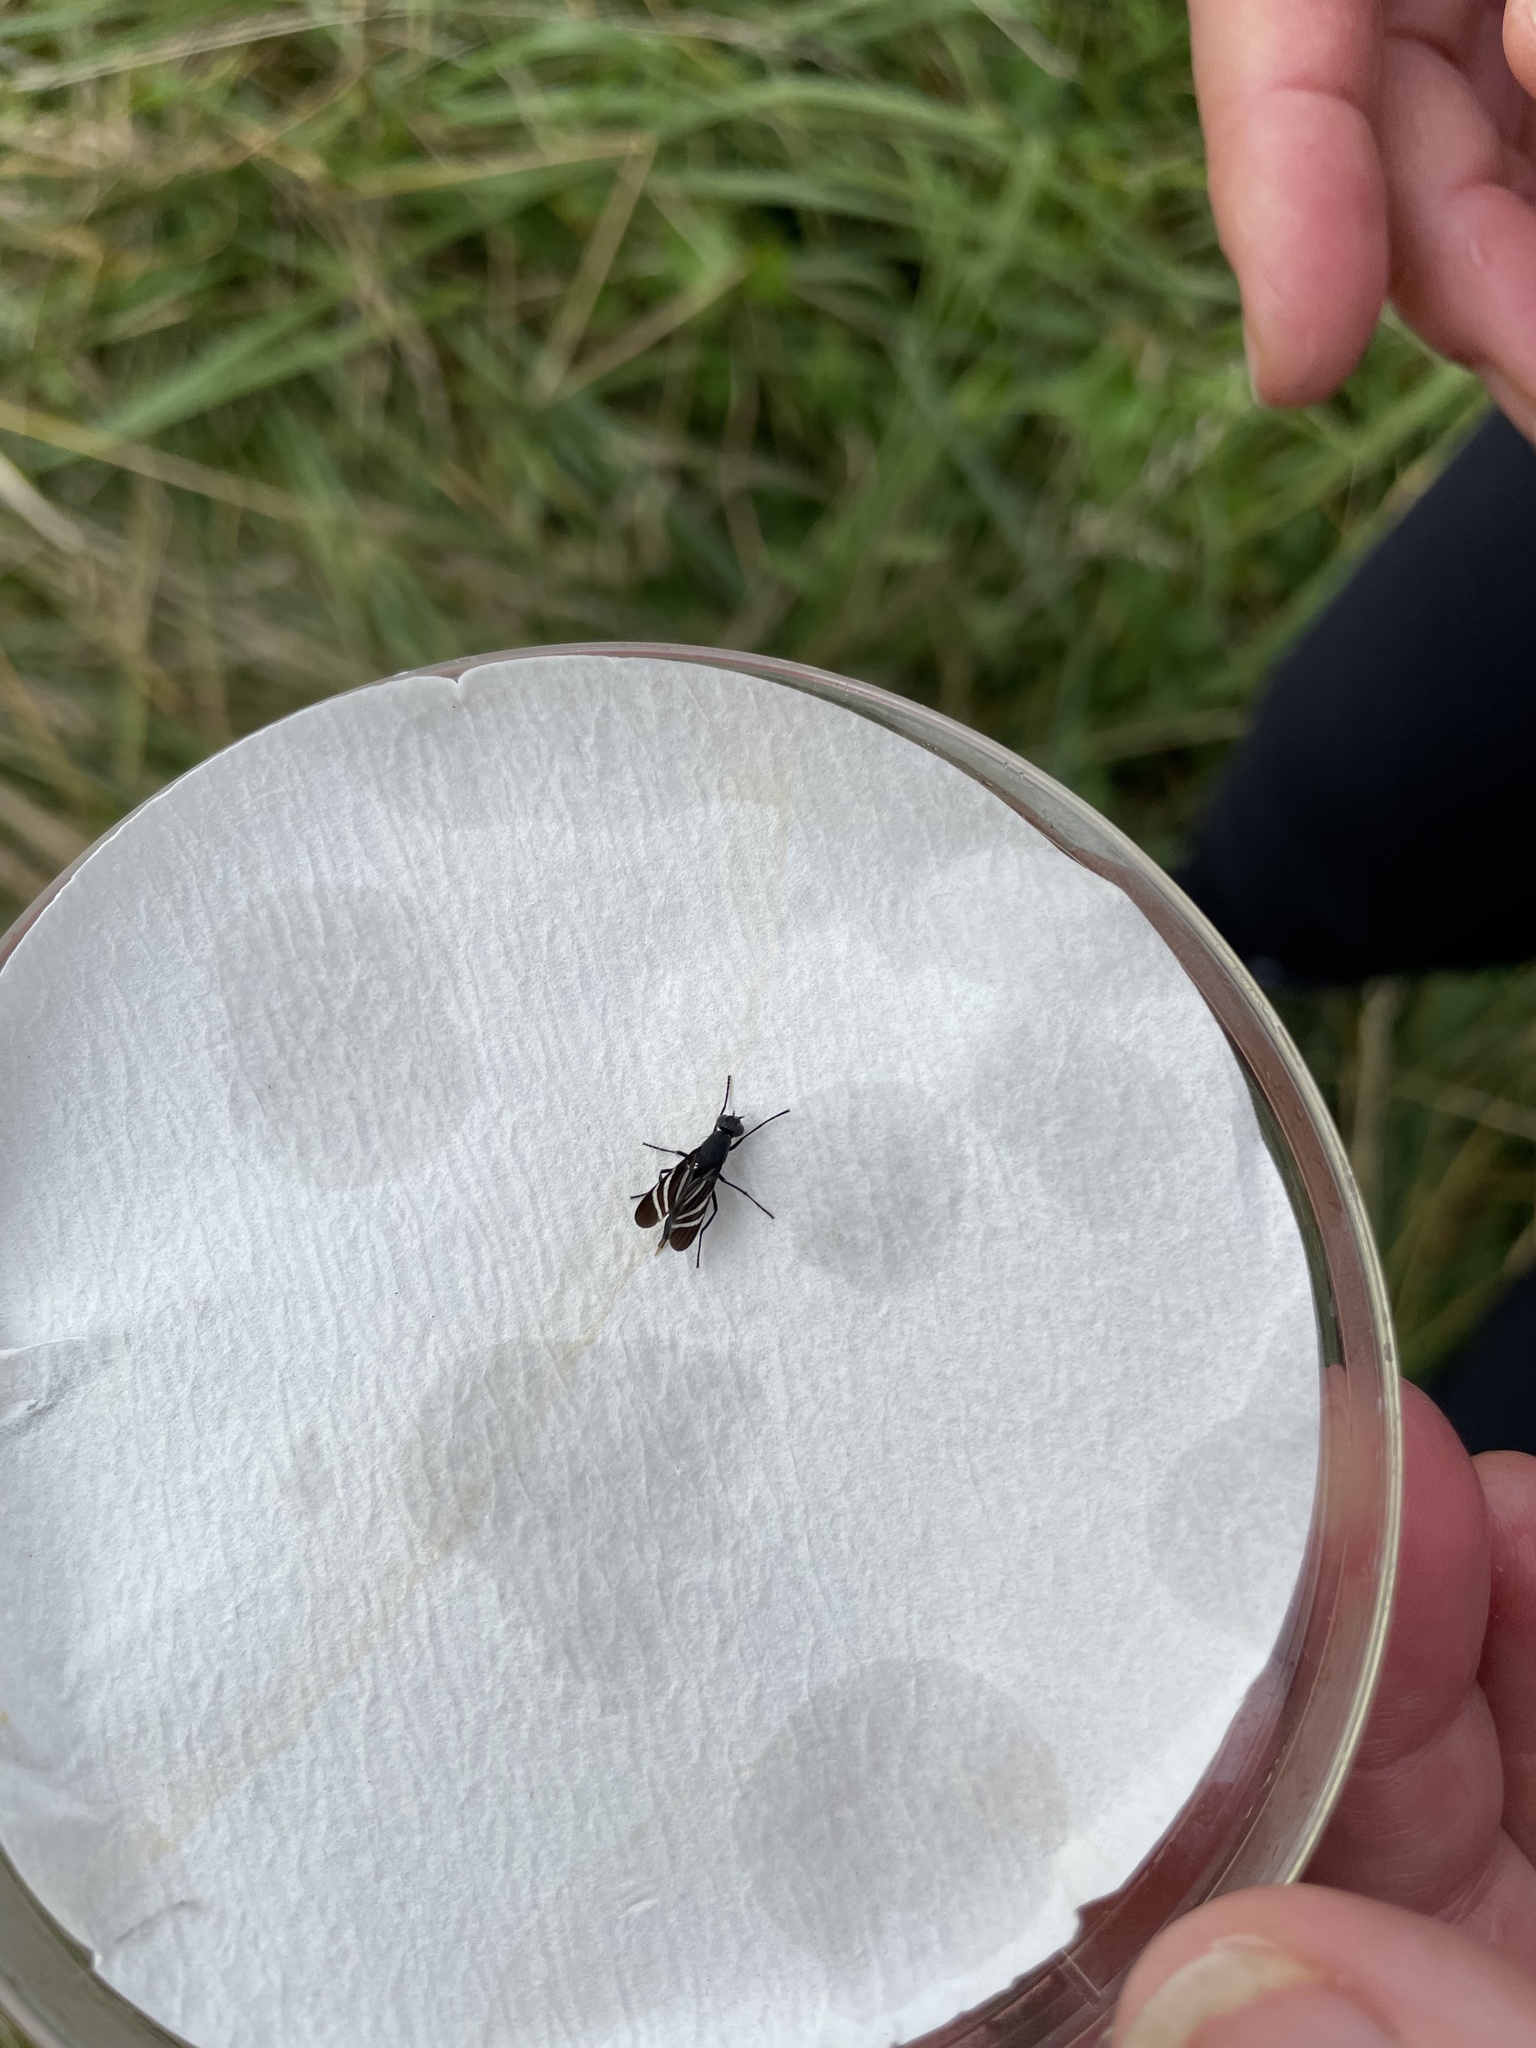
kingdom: Animalia
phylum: Arthropoda
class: Insecta
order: Diptera
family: Ulidiidae
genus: Tritoxa
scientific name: Tritoxa flexa
